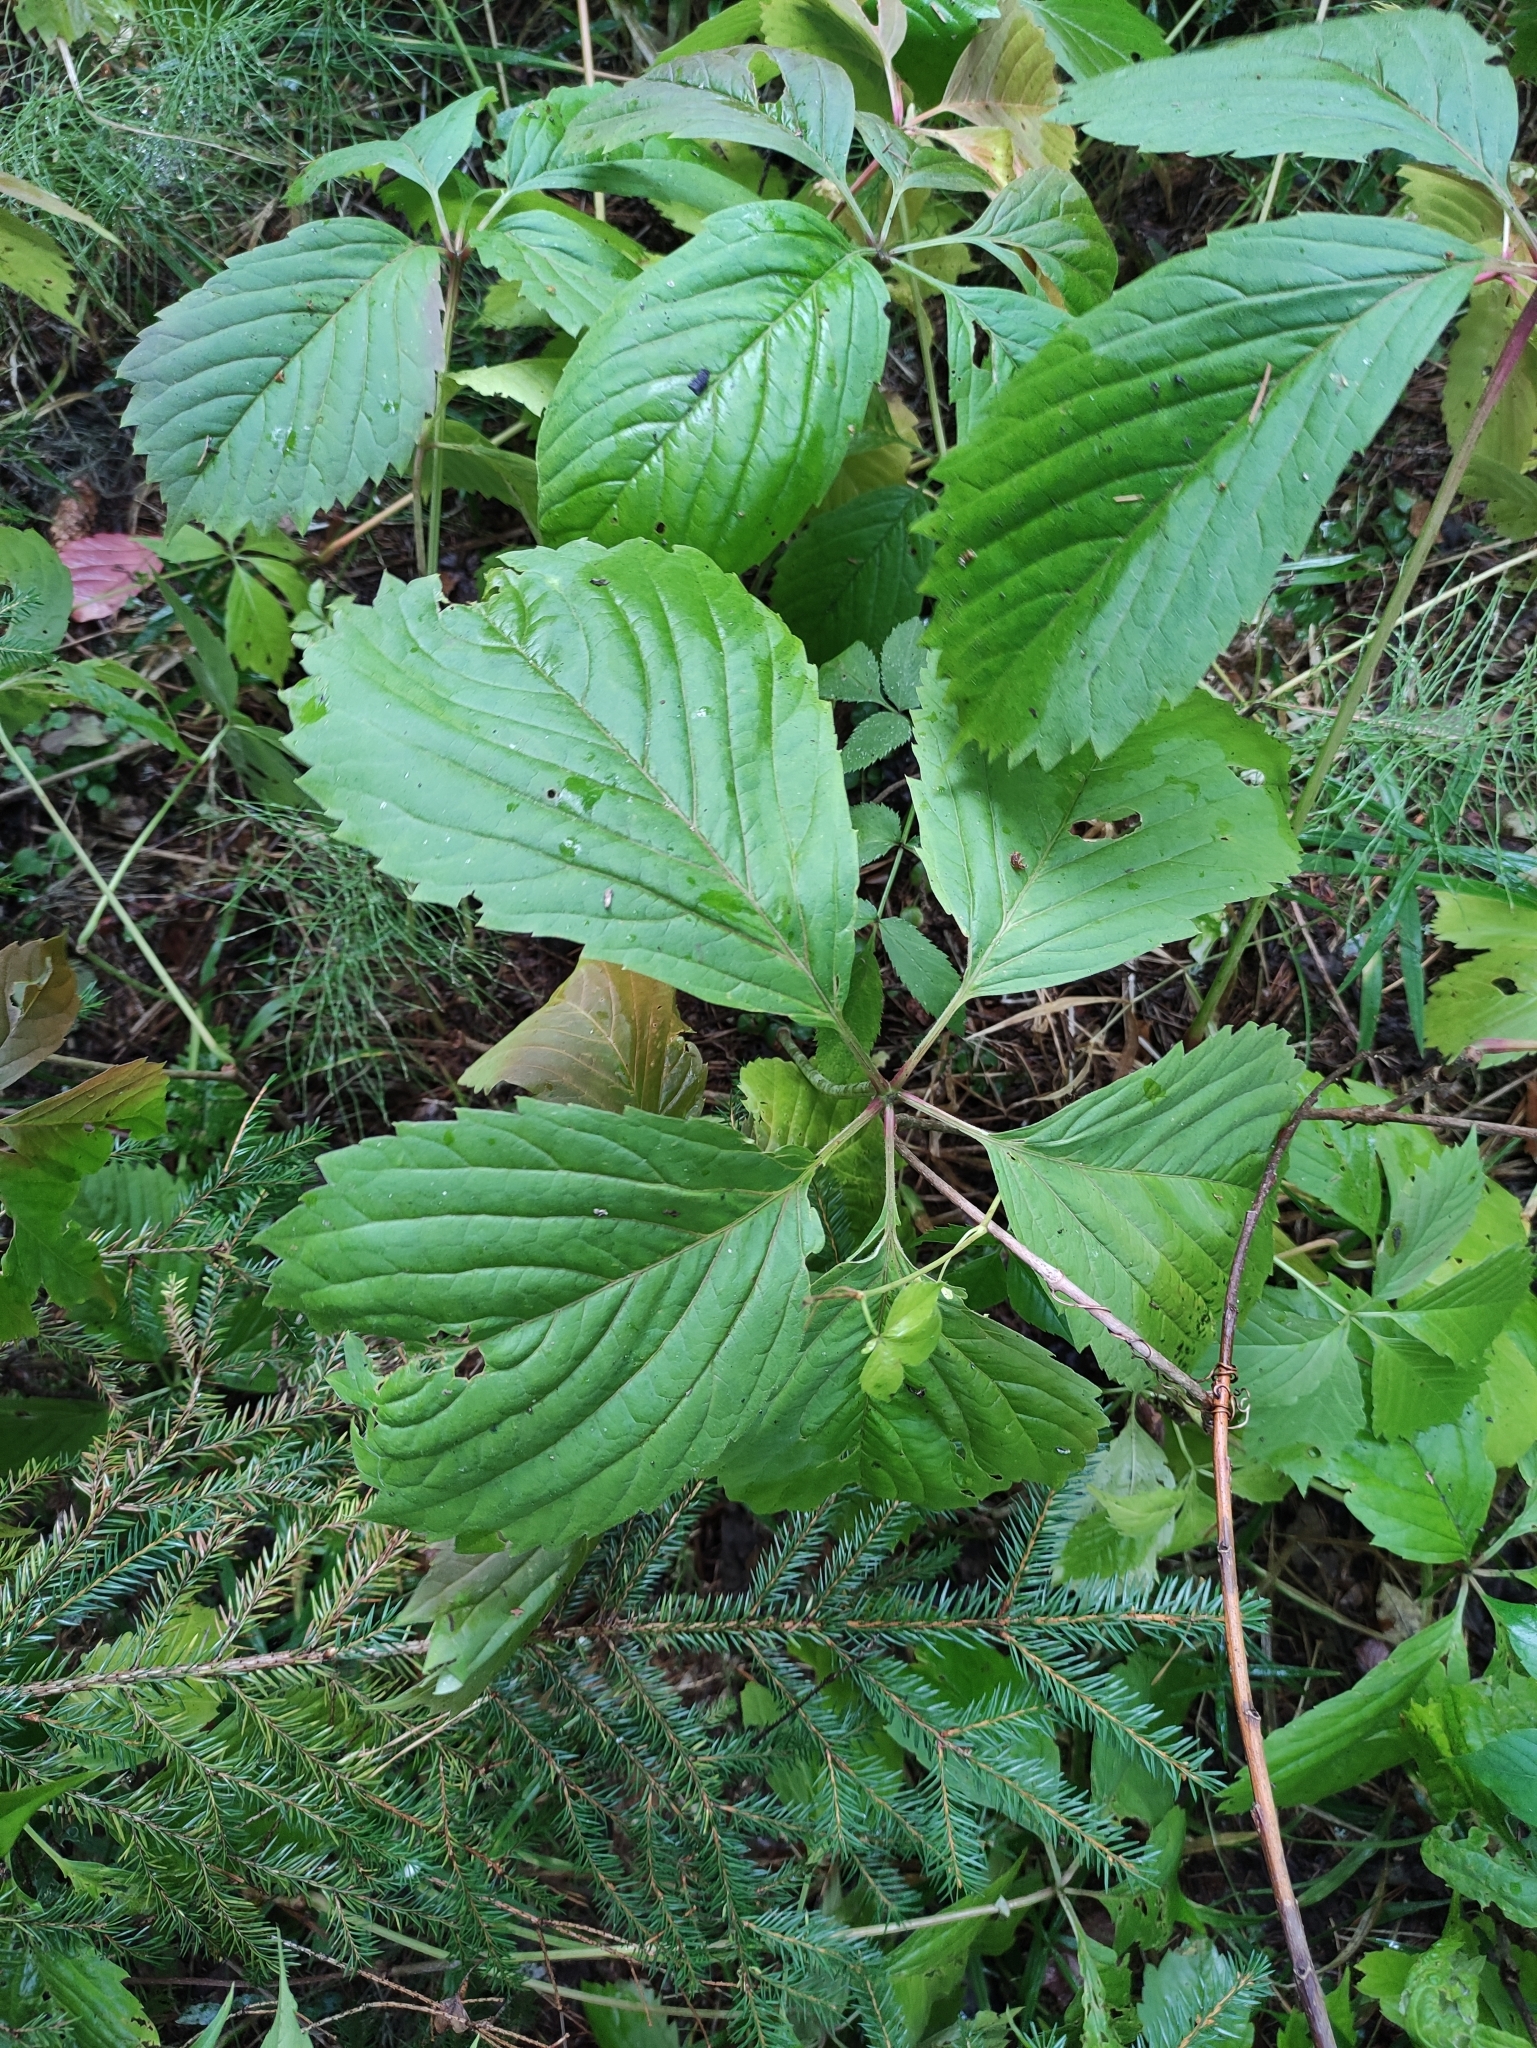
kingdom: Plantae
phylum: Tracheophyta
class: Magnoliopsida
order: Vitales
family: Vitaceae
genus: Parthenocissus
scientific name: Parthenocissus inserta
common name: False virginia-creeper
